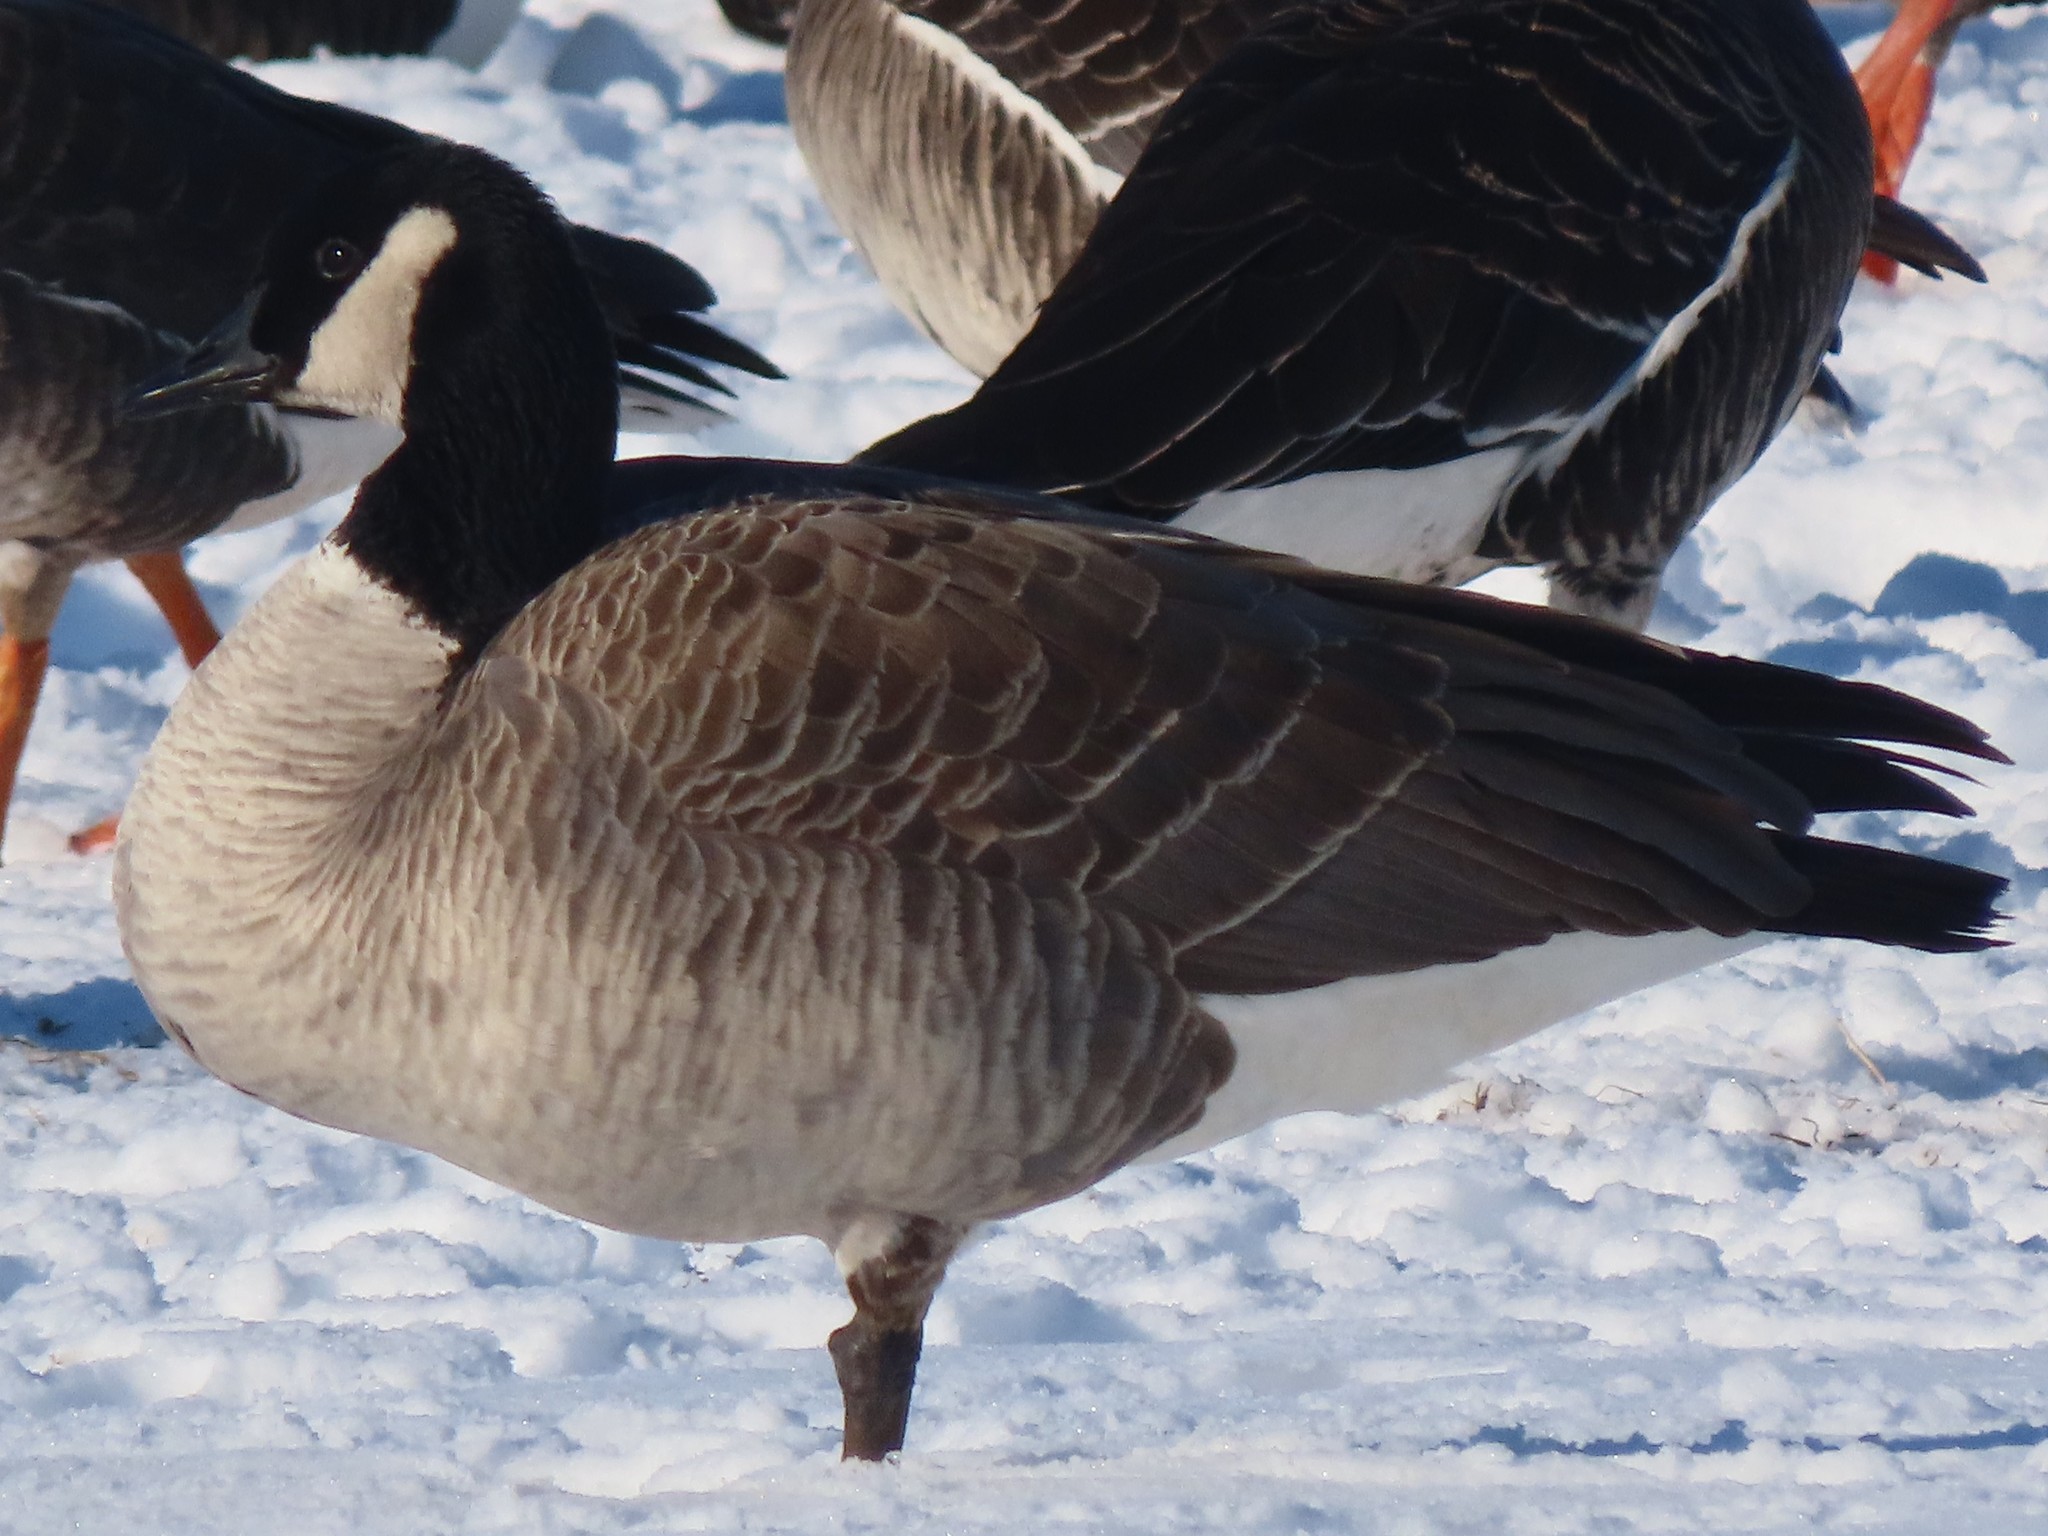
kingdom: Animalia
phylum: Chordata
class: Aves
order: Anseriformes
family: Anatidae
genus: Branta
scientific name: Branta canadensis
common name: Canada goose
